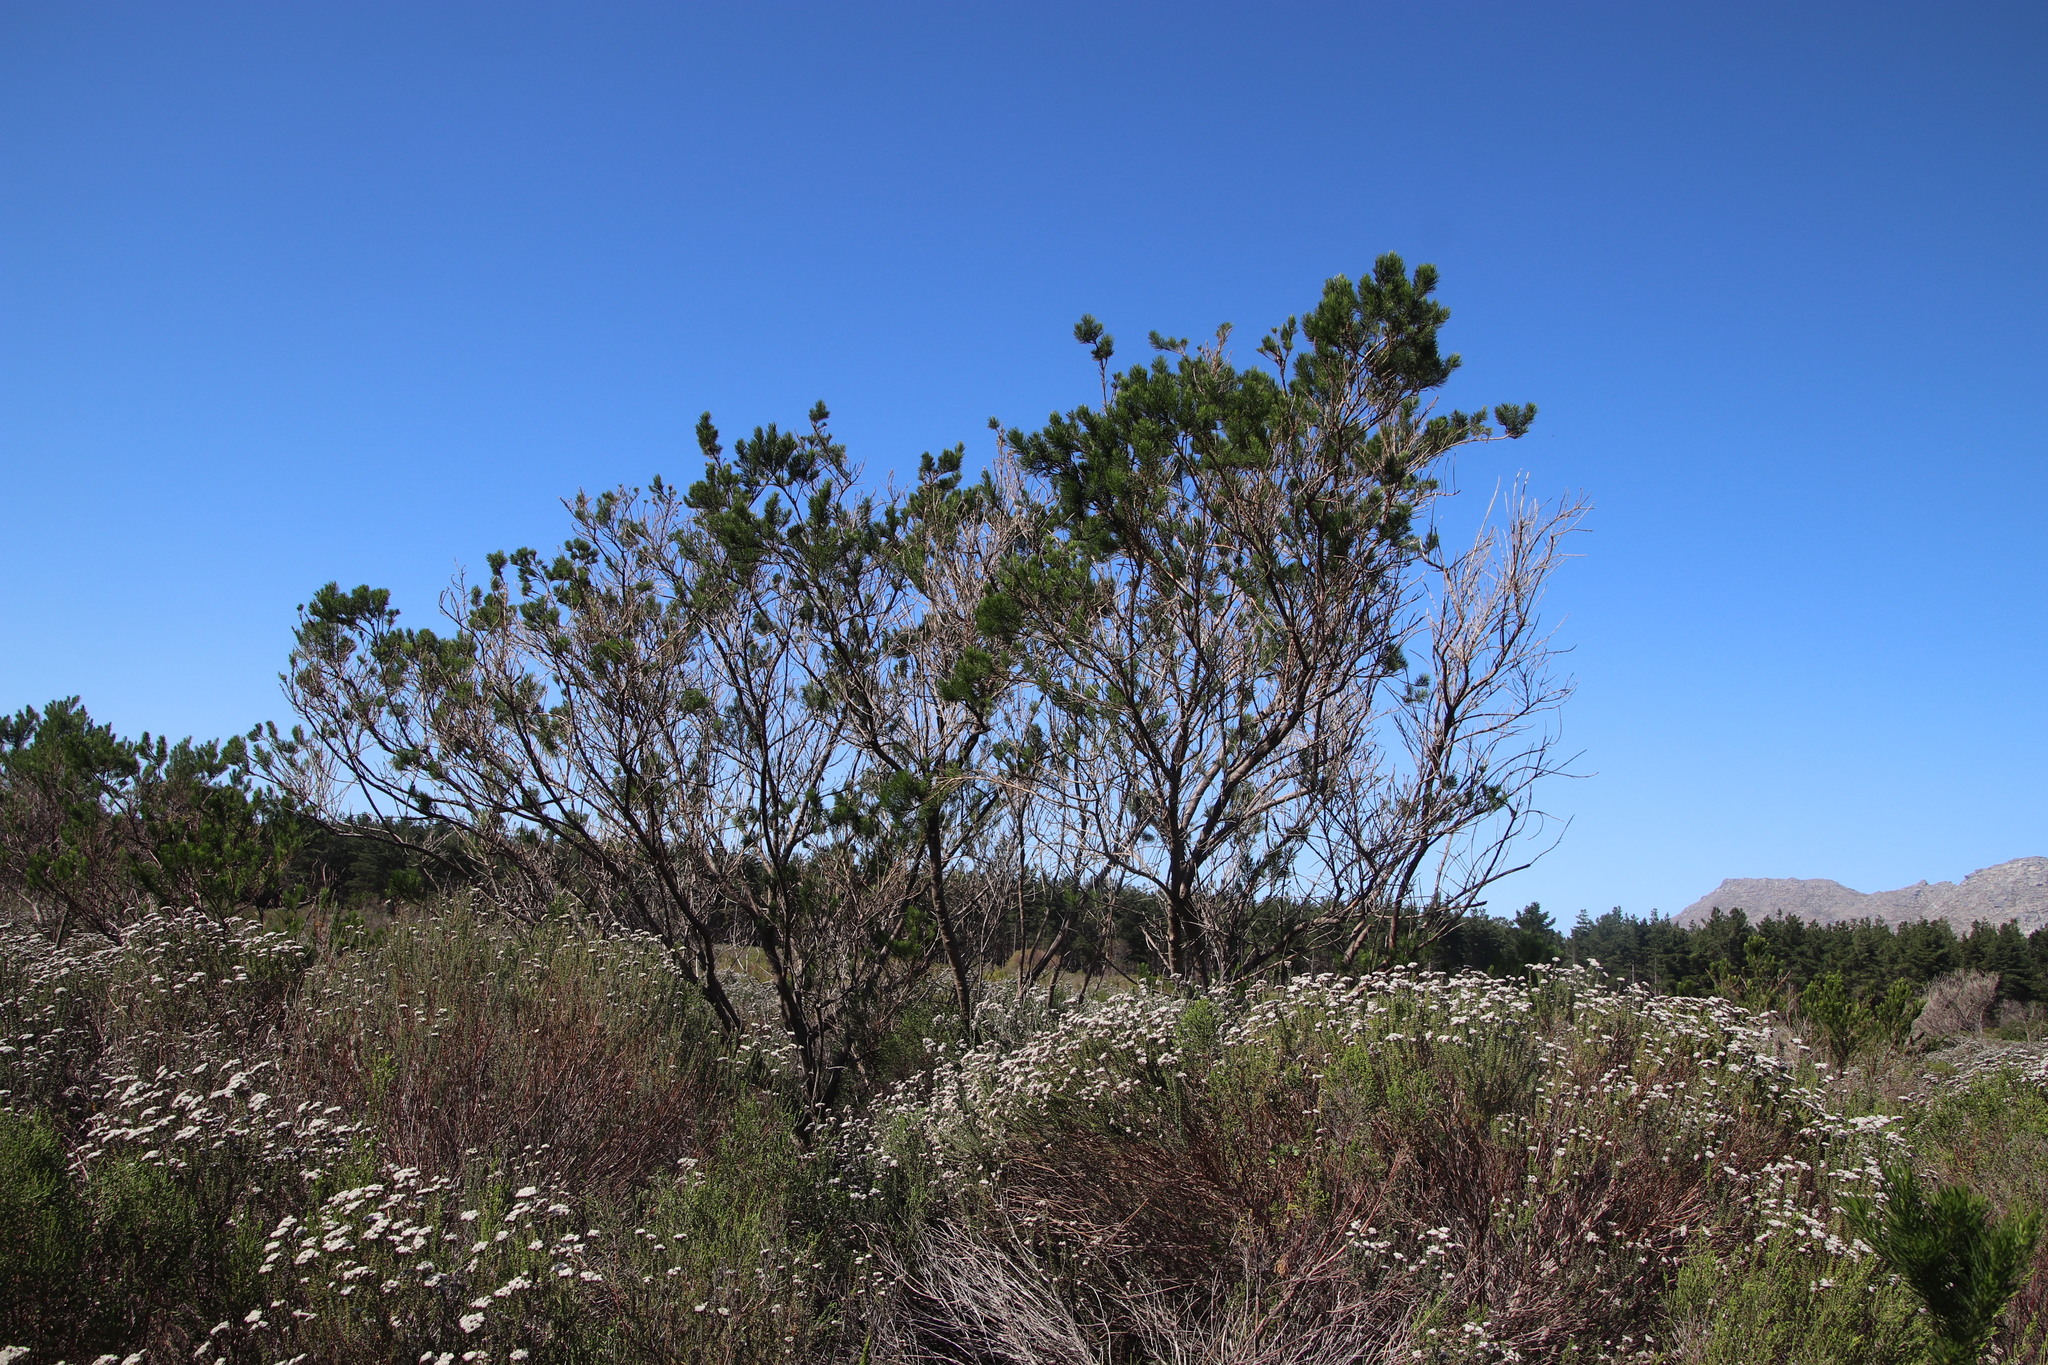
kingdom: Plantae
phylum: Tracheophyta
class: Magnoliopsida
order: Fabales
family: Fabaceae
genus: Psoralea
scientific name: Psoralea pinnata
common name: African scurfpea
